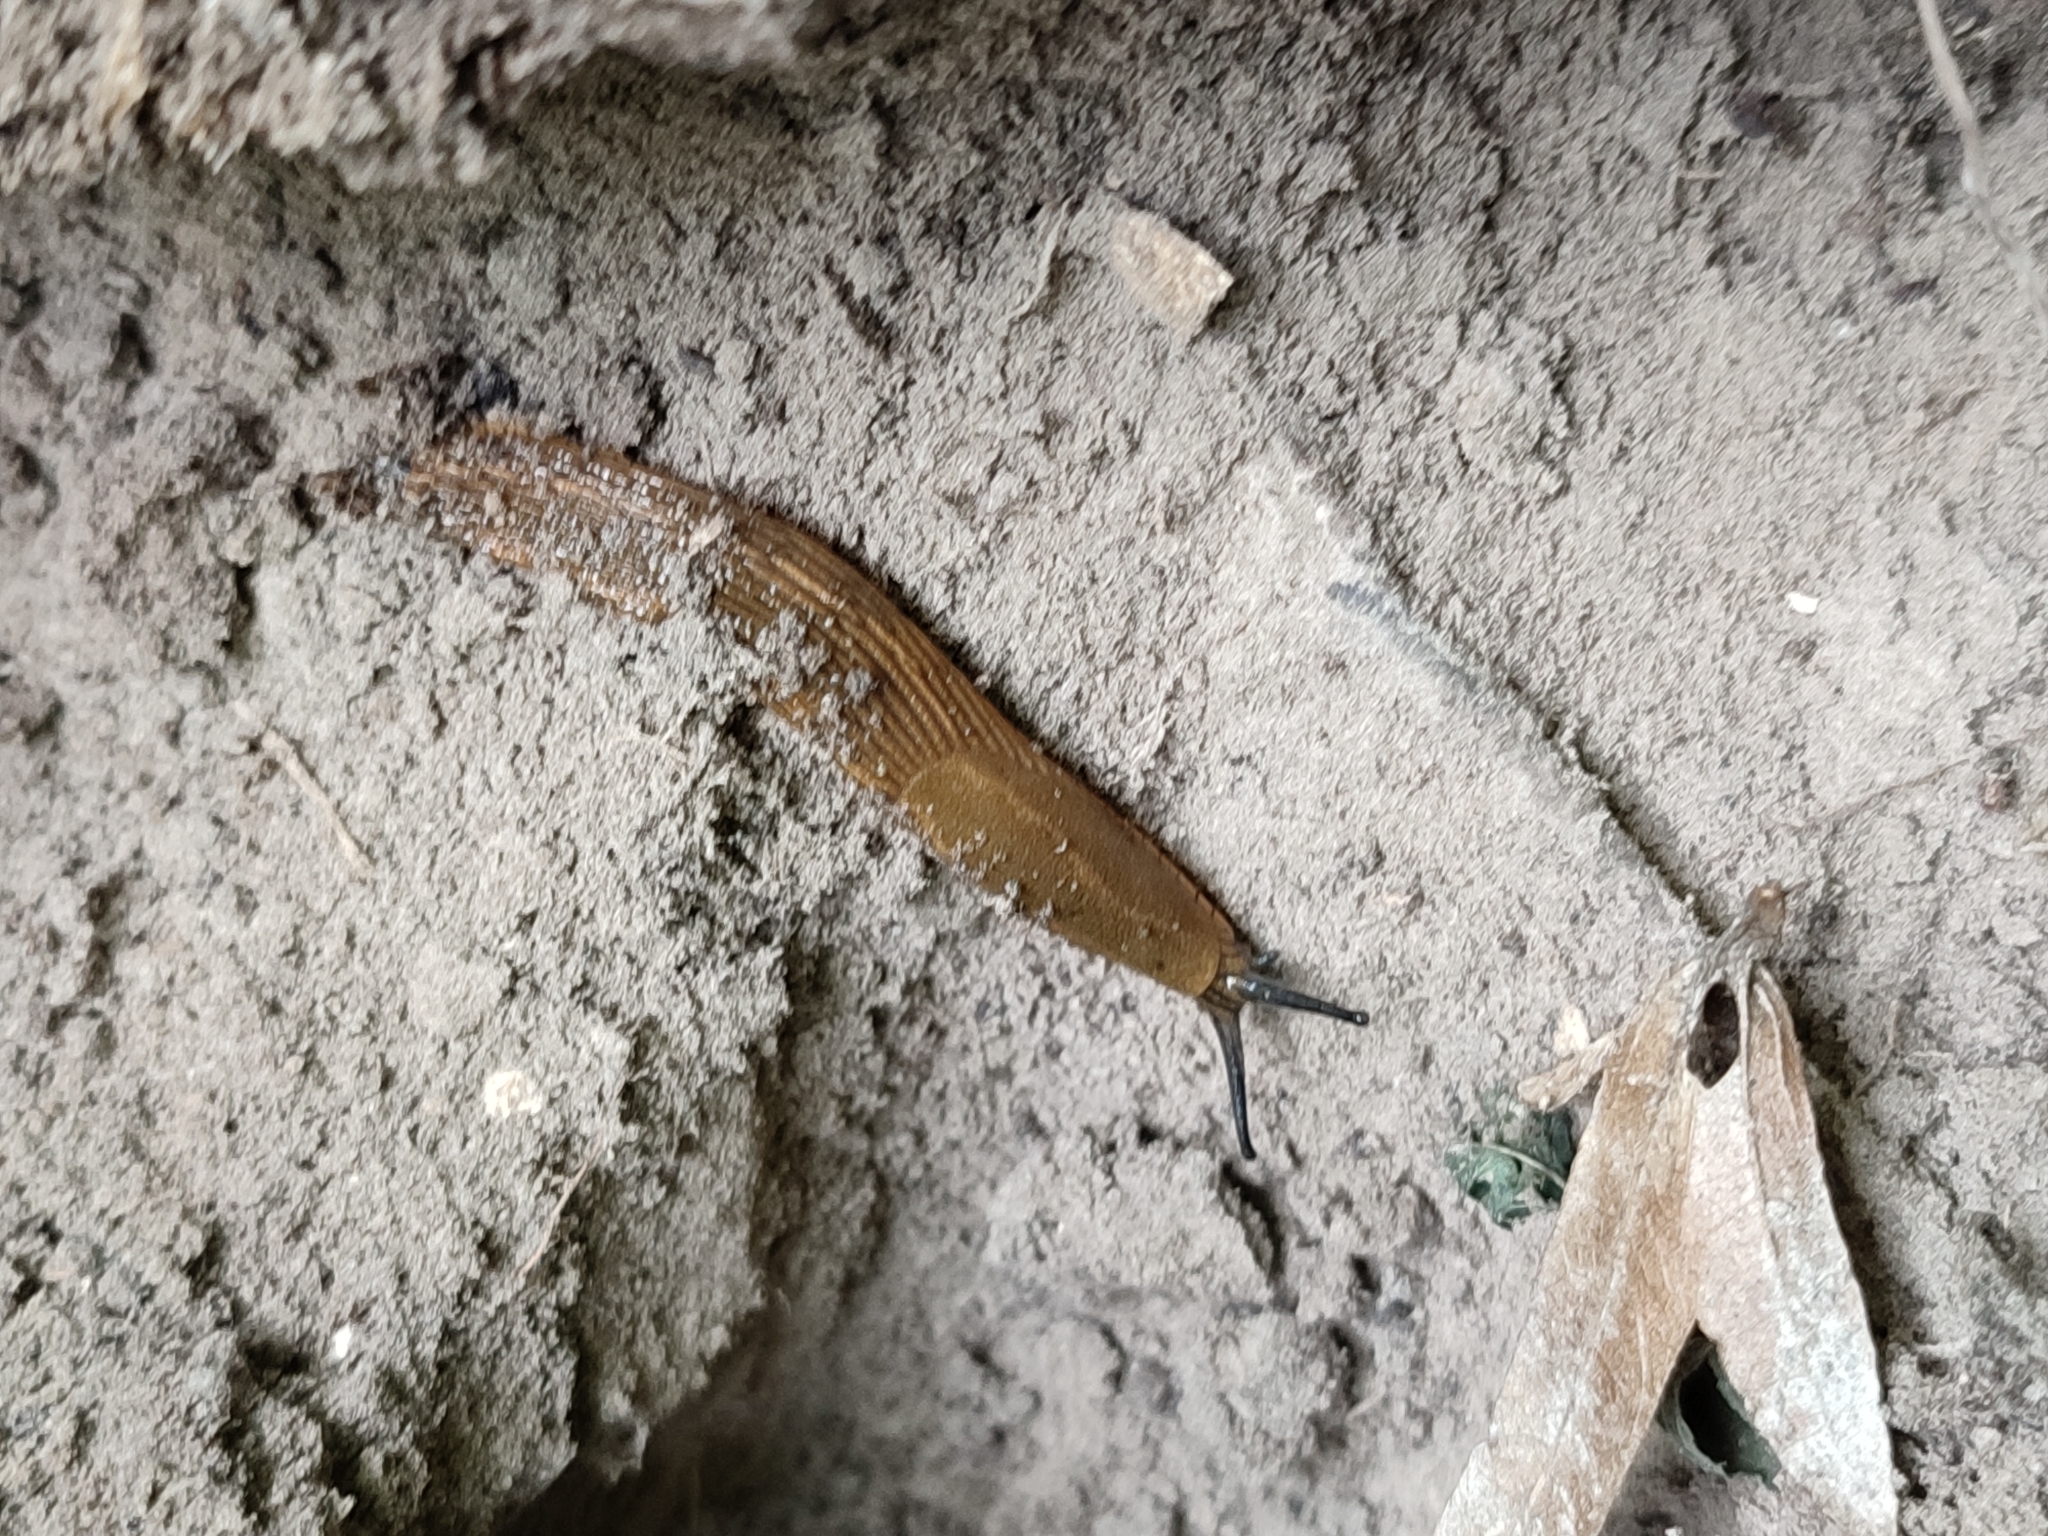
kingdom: Animalia
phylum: Mollusca
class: Gastropoda
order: Stylommatophora
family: Arionidae
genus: Arion
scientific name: Arion vulgaris
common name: Lusitanian slug
